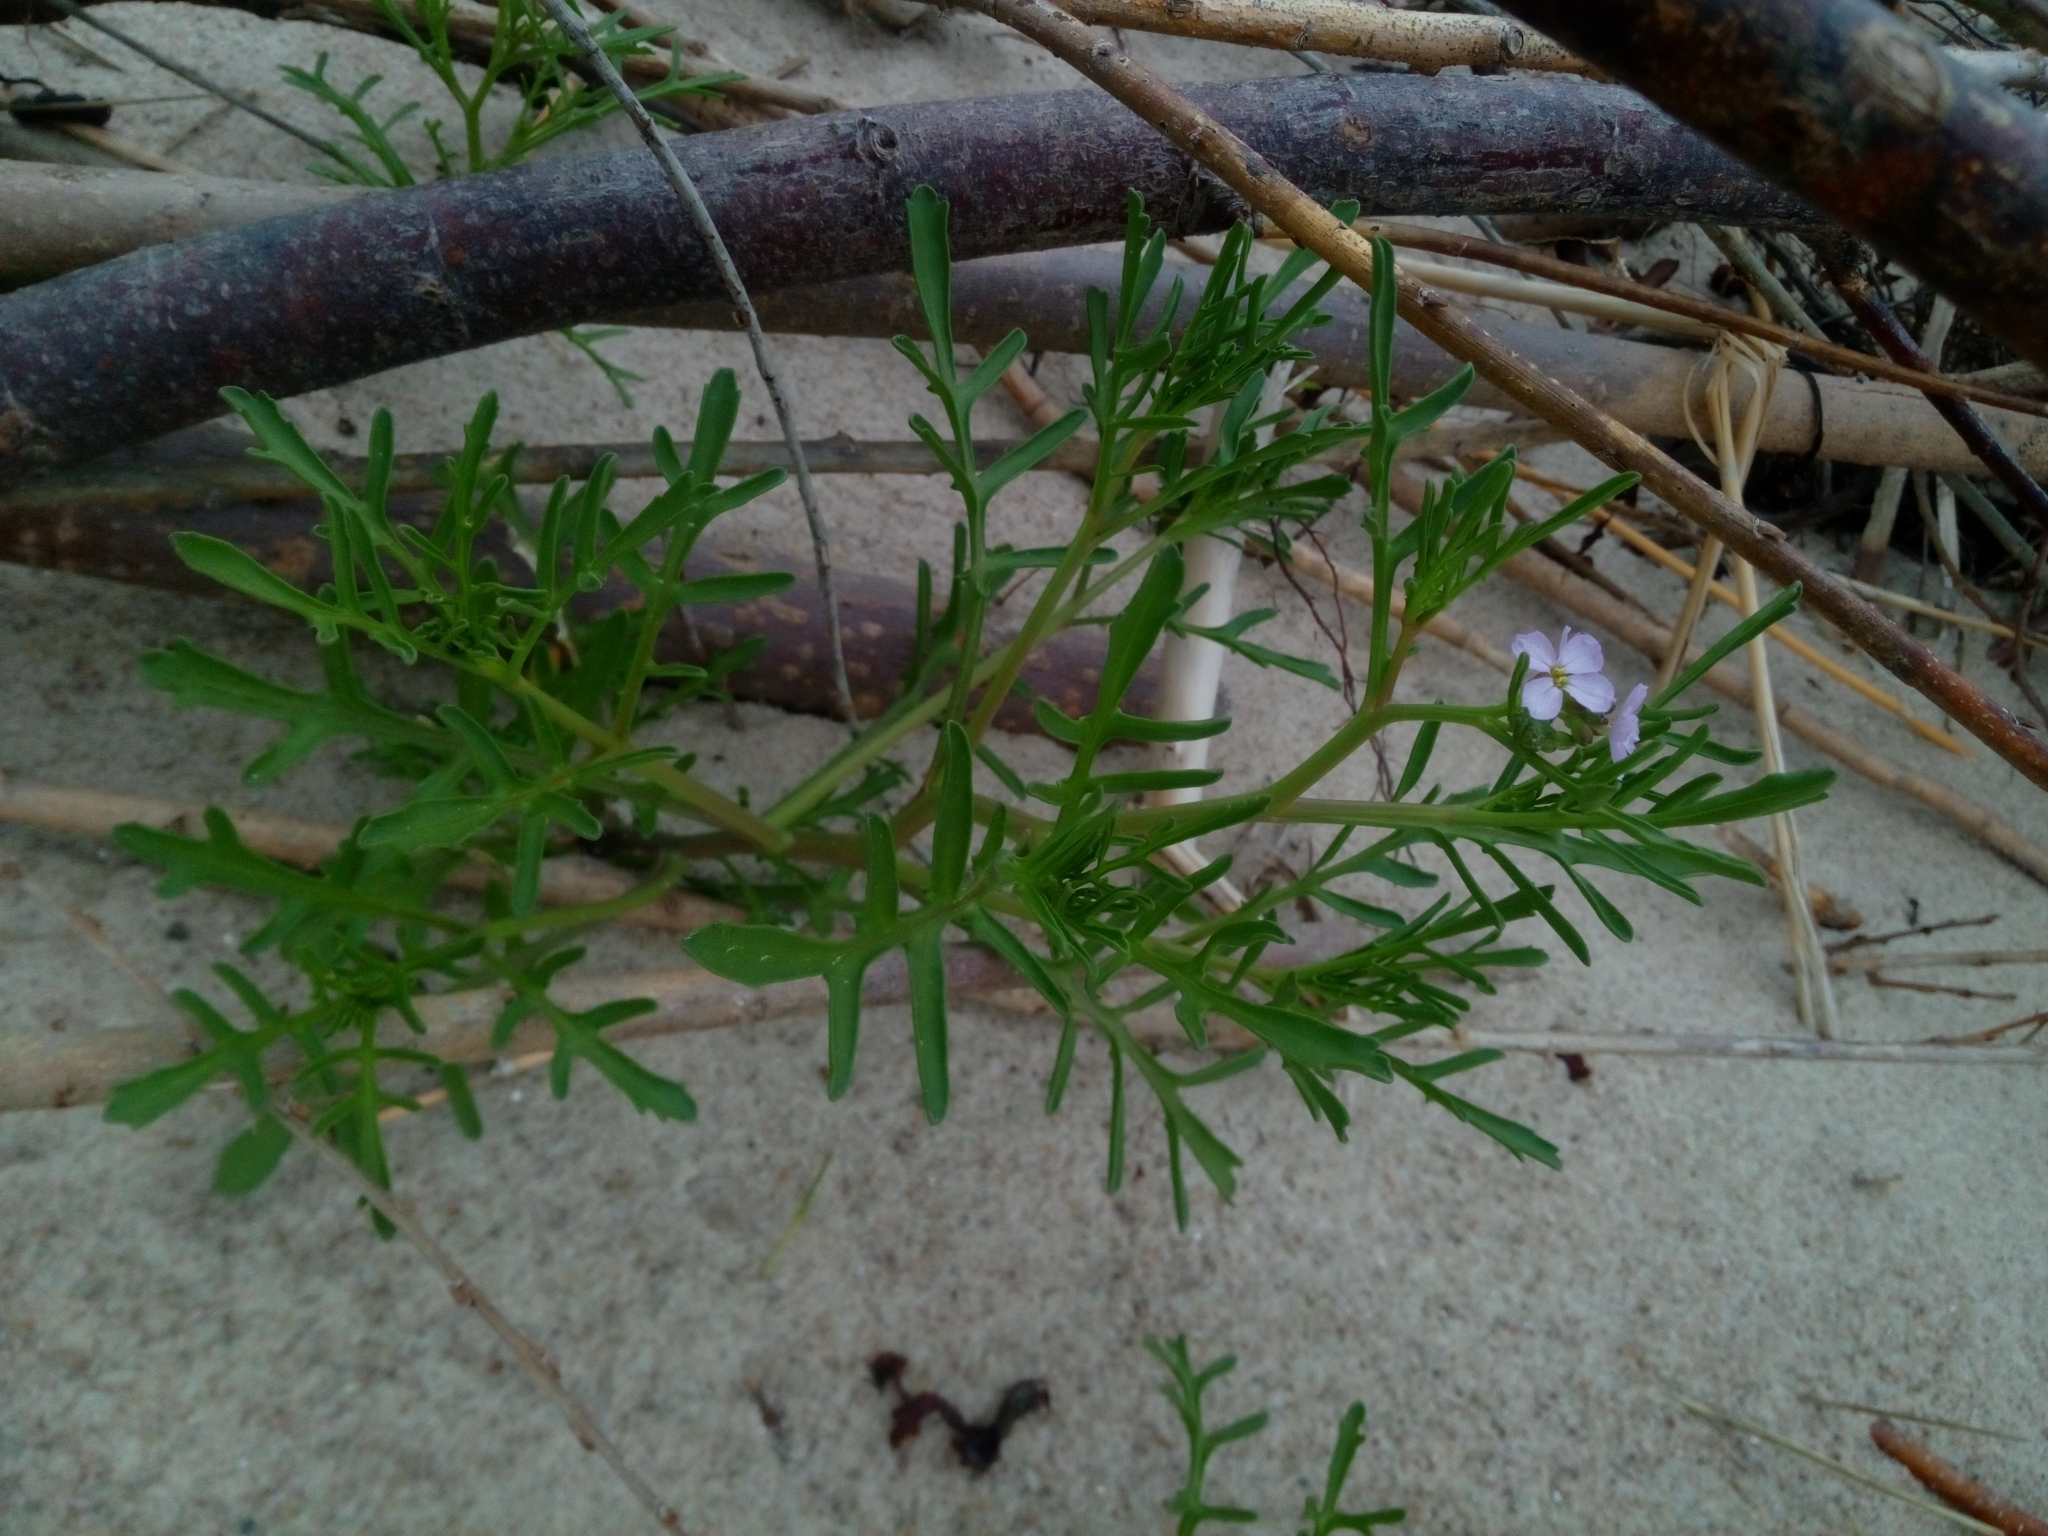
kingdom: Plantae
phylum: Tracheophyta
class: Magnoliopsida
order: Brassicales
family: Brassicaceae
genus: Cakile
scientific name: Cakile maritima
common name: Sea rocket
